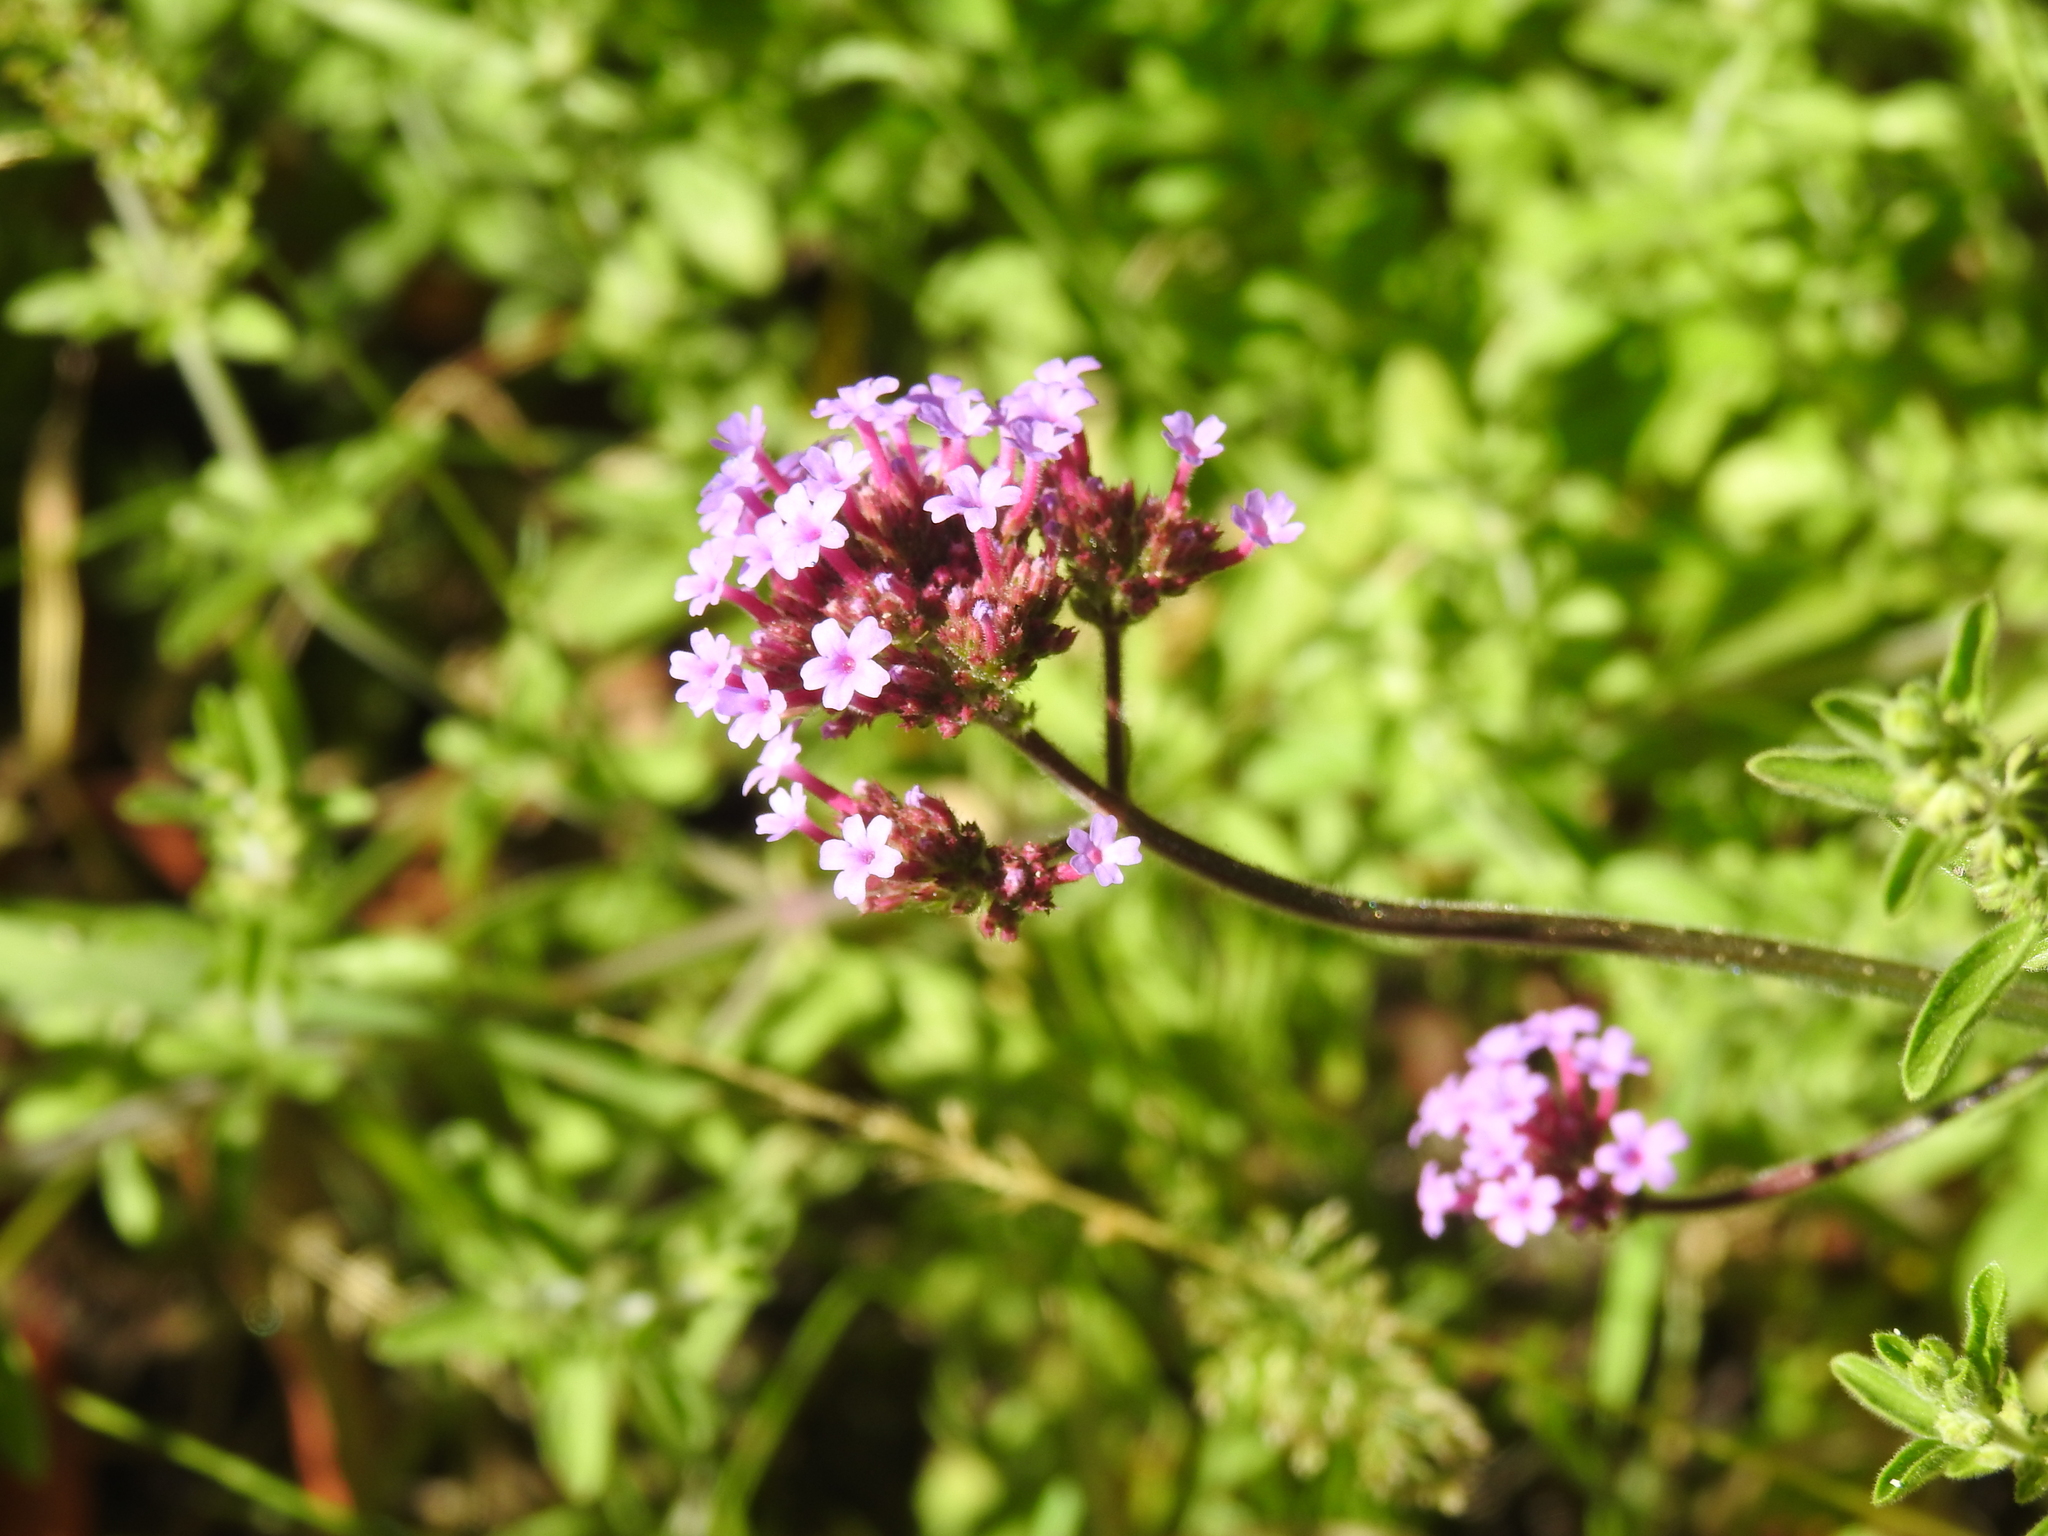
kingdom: Plantae
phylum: Tracheophyta
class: Magnoliopsida
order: Lamiales
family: Verbenaceae
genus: Verbena
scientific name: Verbena bonariensis
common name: Purpletop vervain
